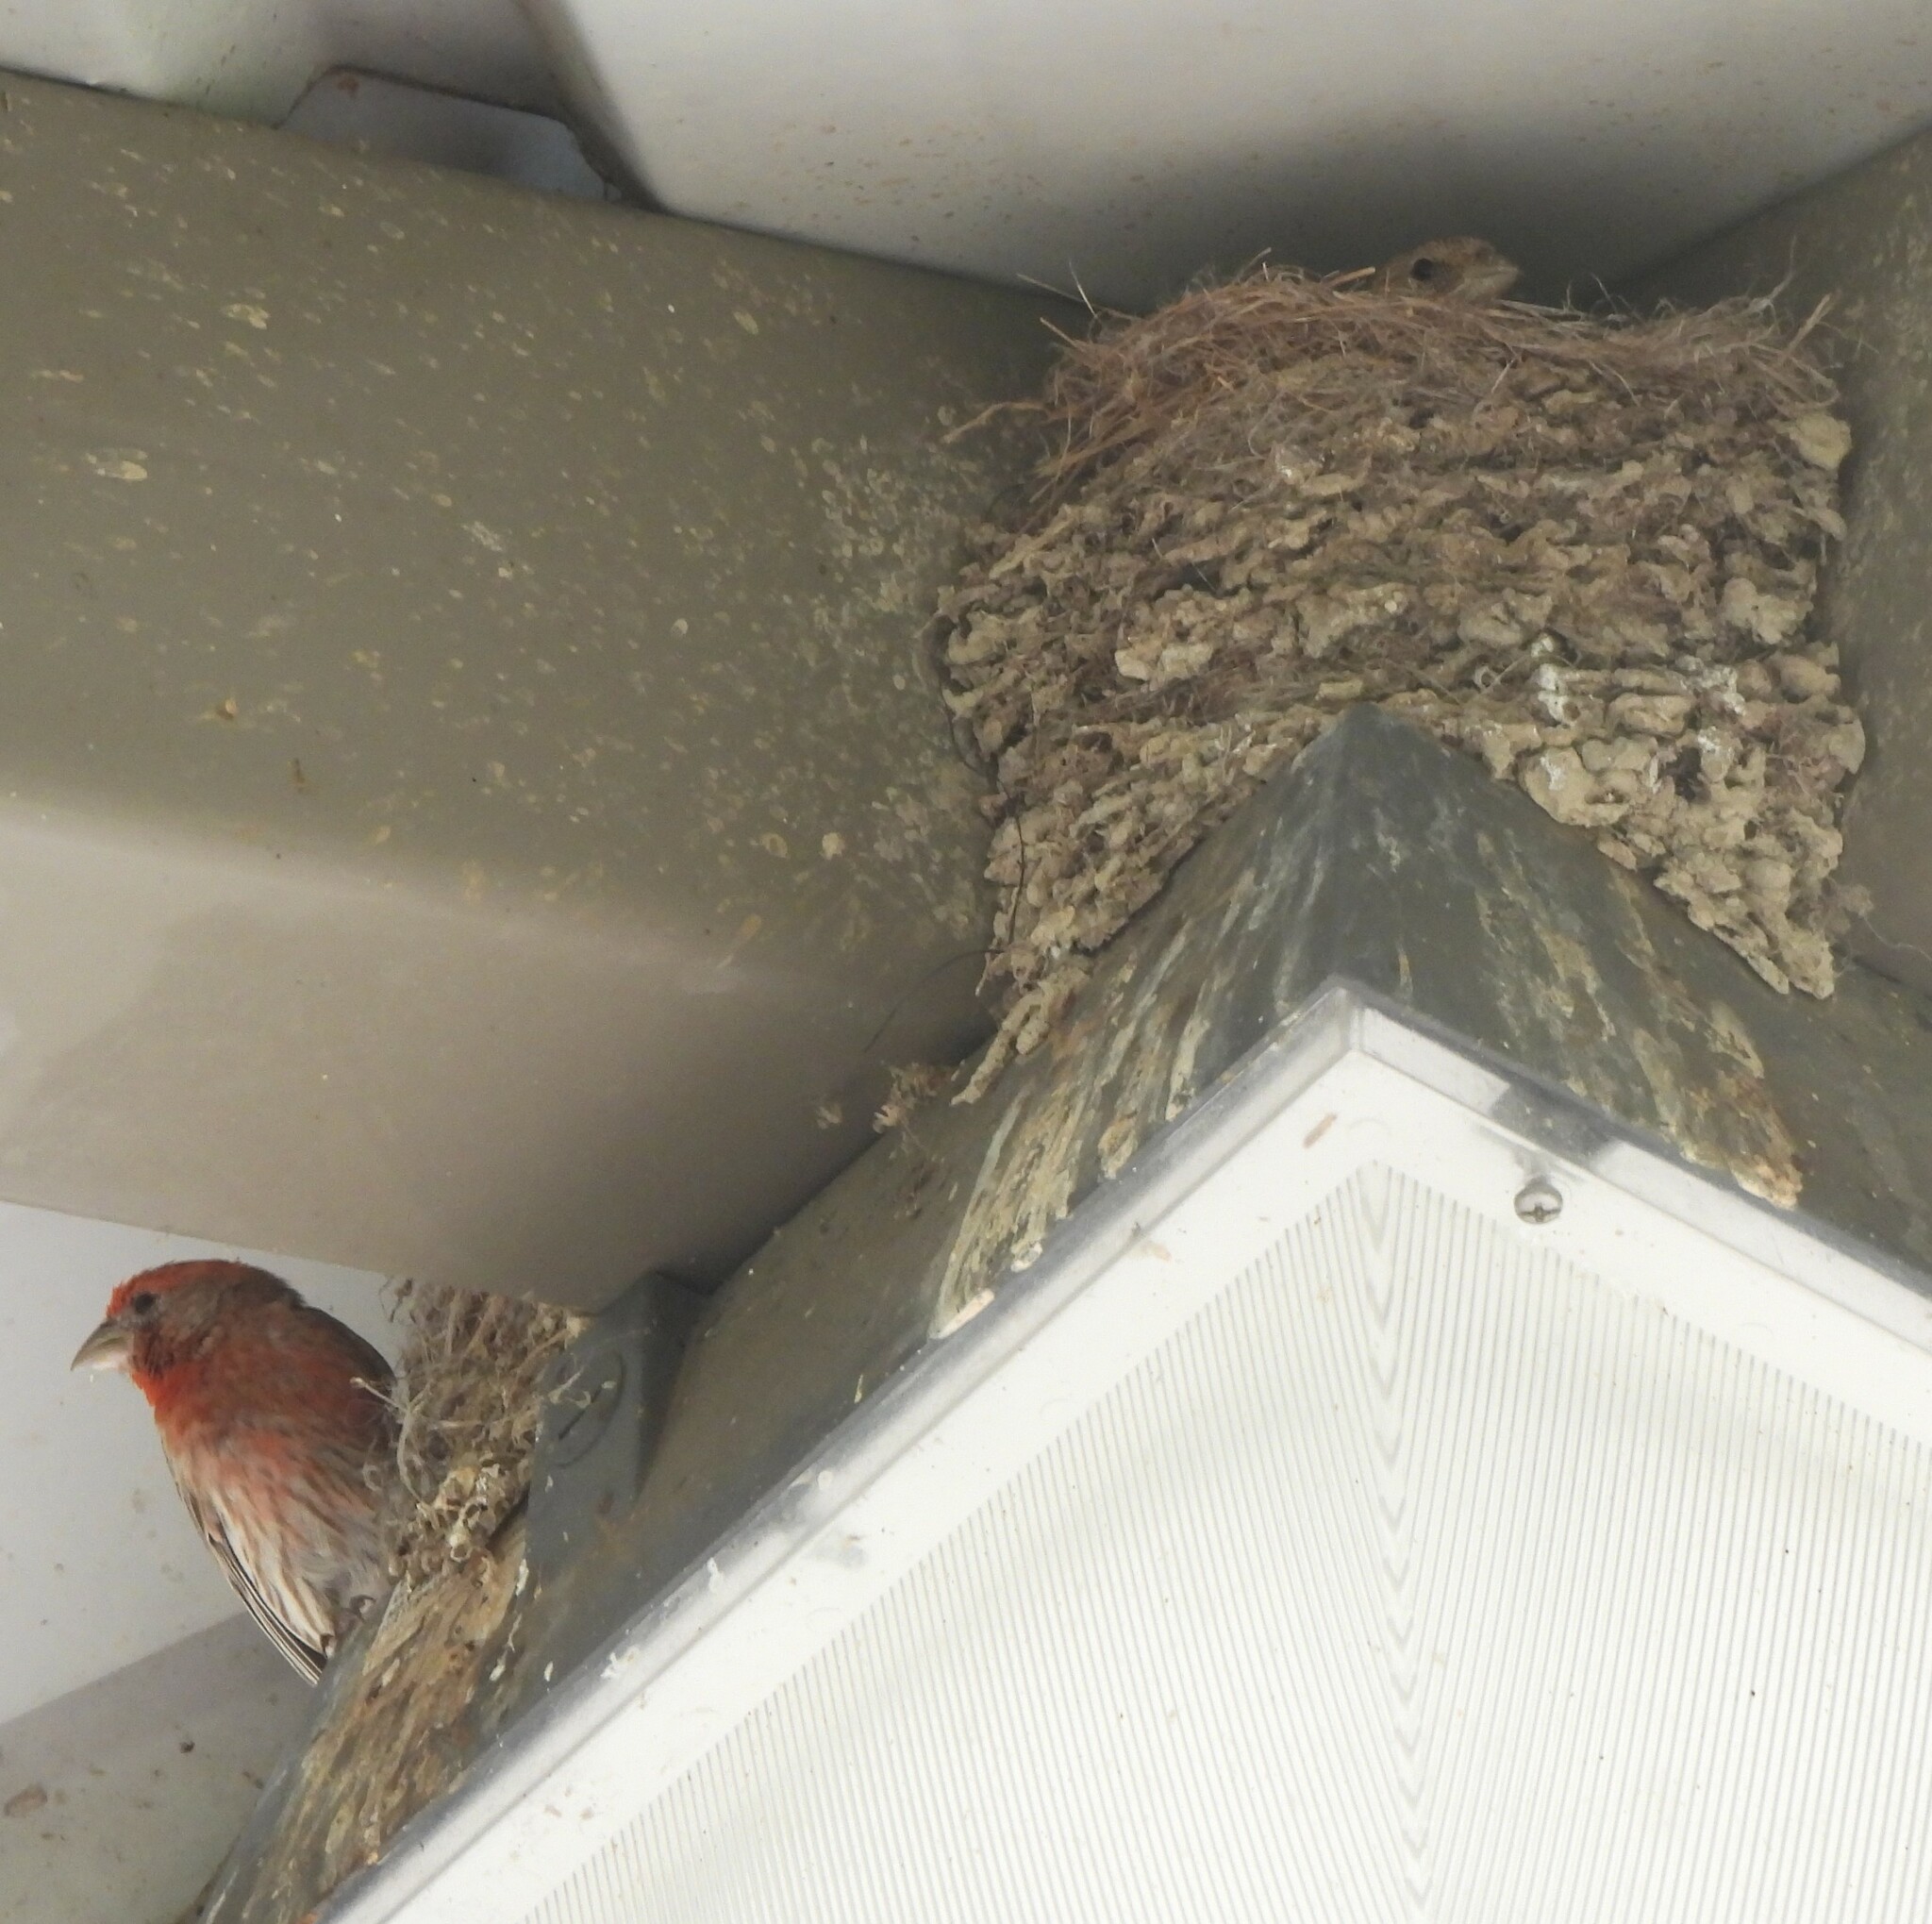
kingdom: Animalia
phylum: Chordata
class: Aves
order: Passeriformes
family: Fringillidae
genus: Haemorhous
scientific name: Haemorhous mexicanus
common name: House finch
